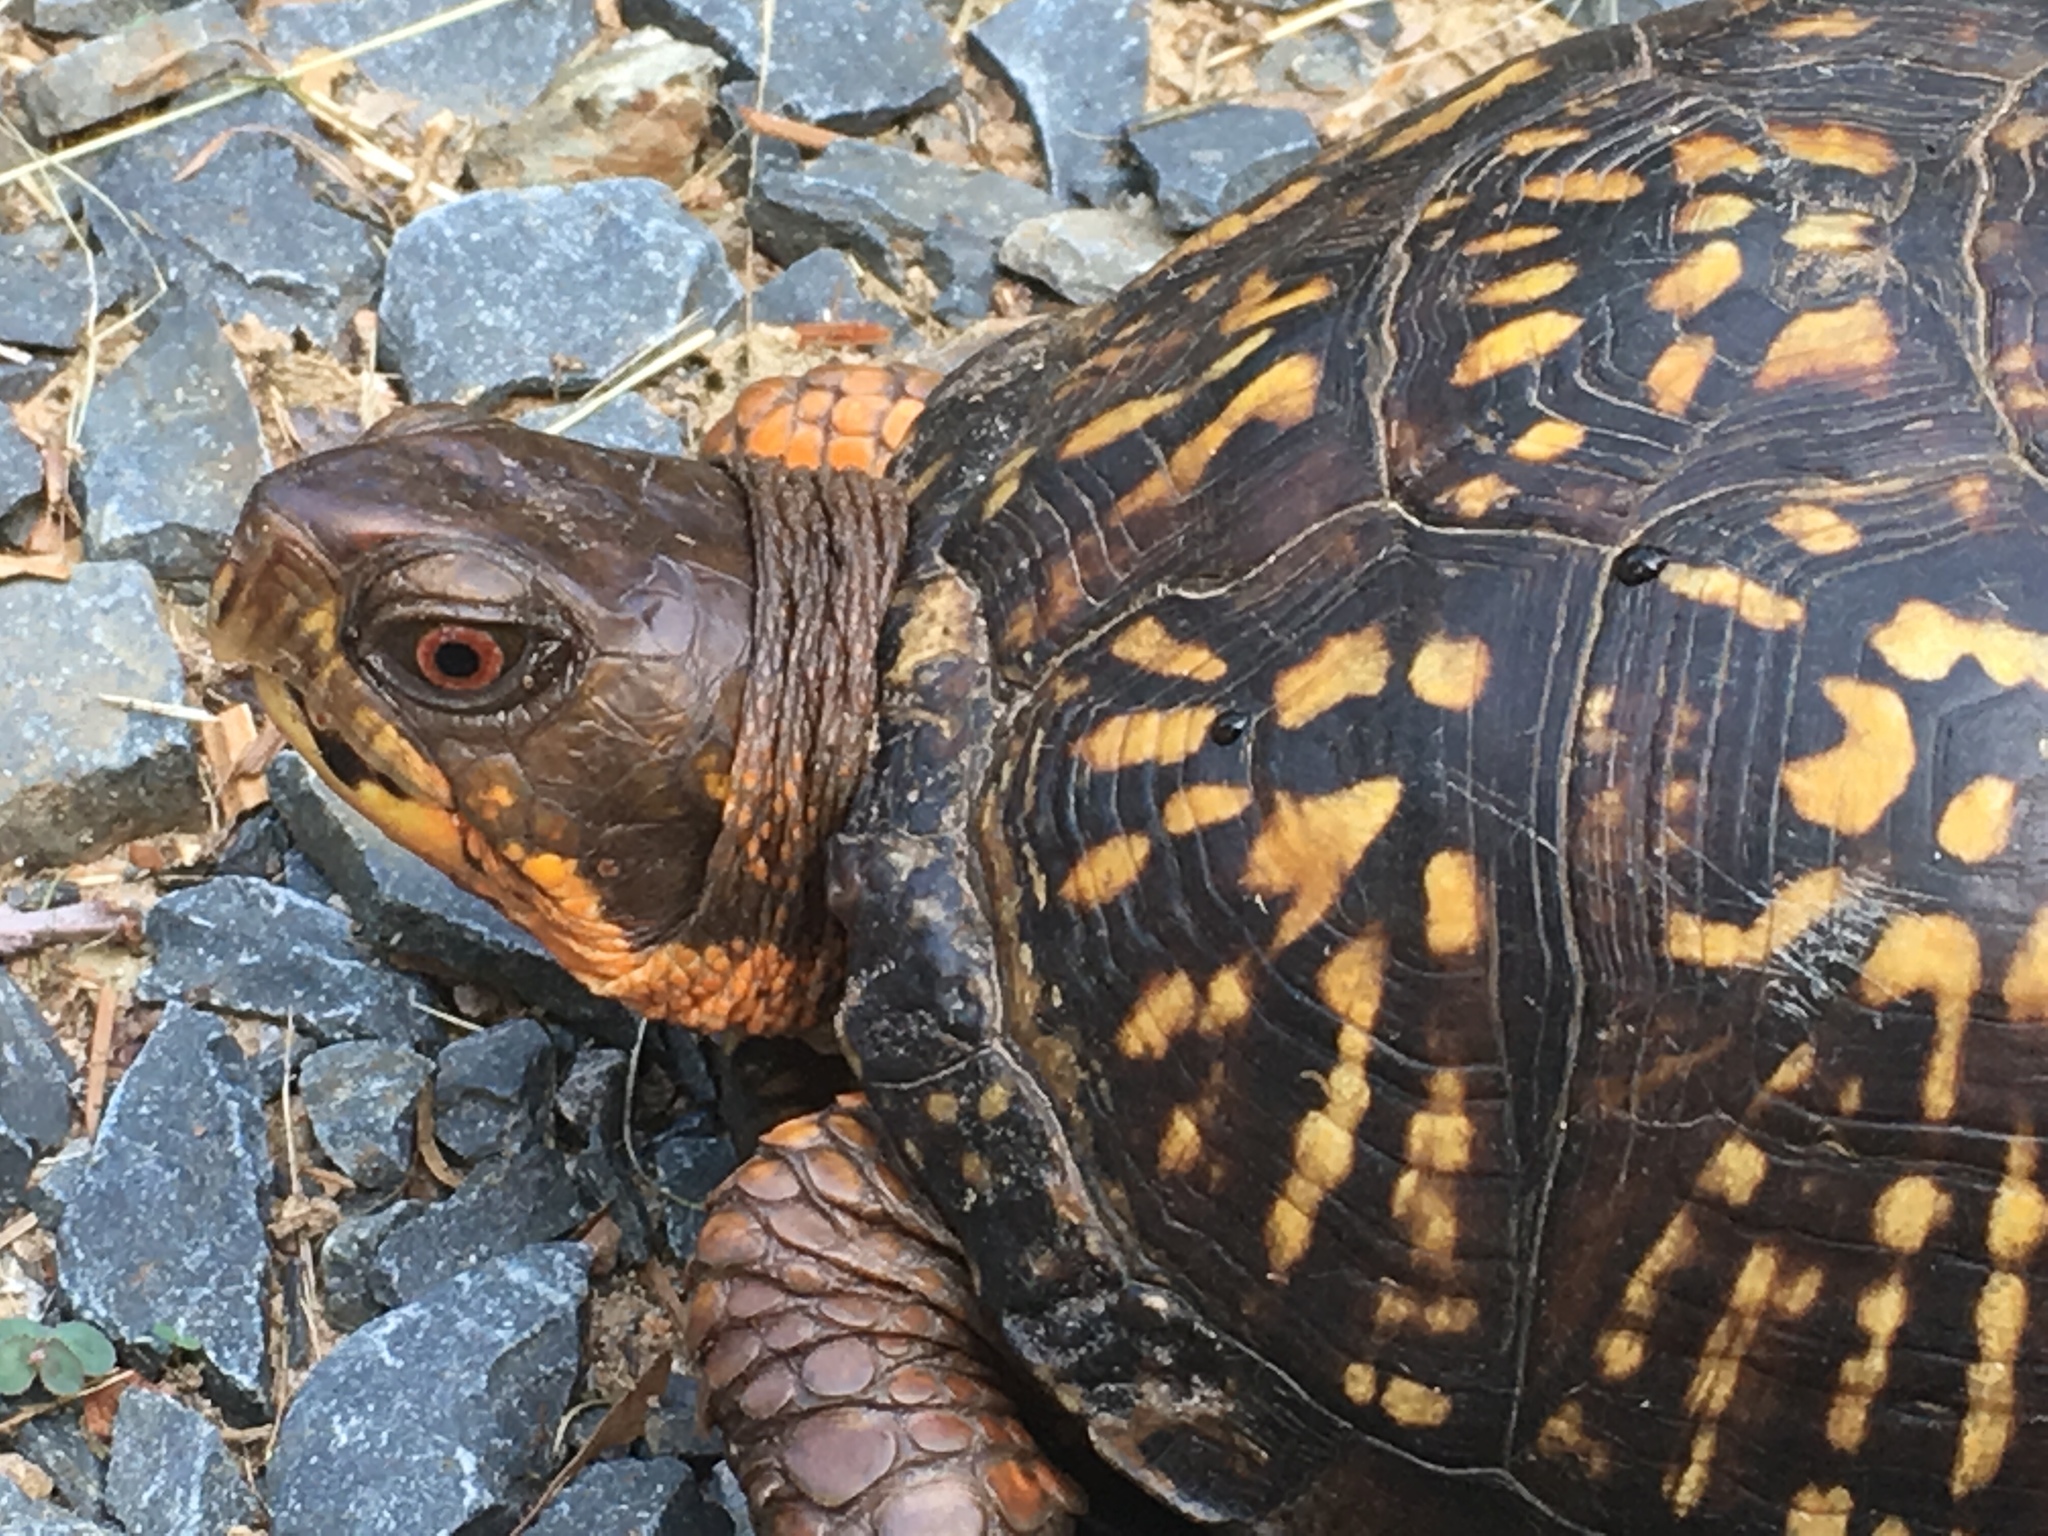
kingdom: Animalia
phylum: Chordata
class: Testudines
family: Emydidae
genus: Terrapene
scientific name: Terrapene carolina
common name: Common box turtle
